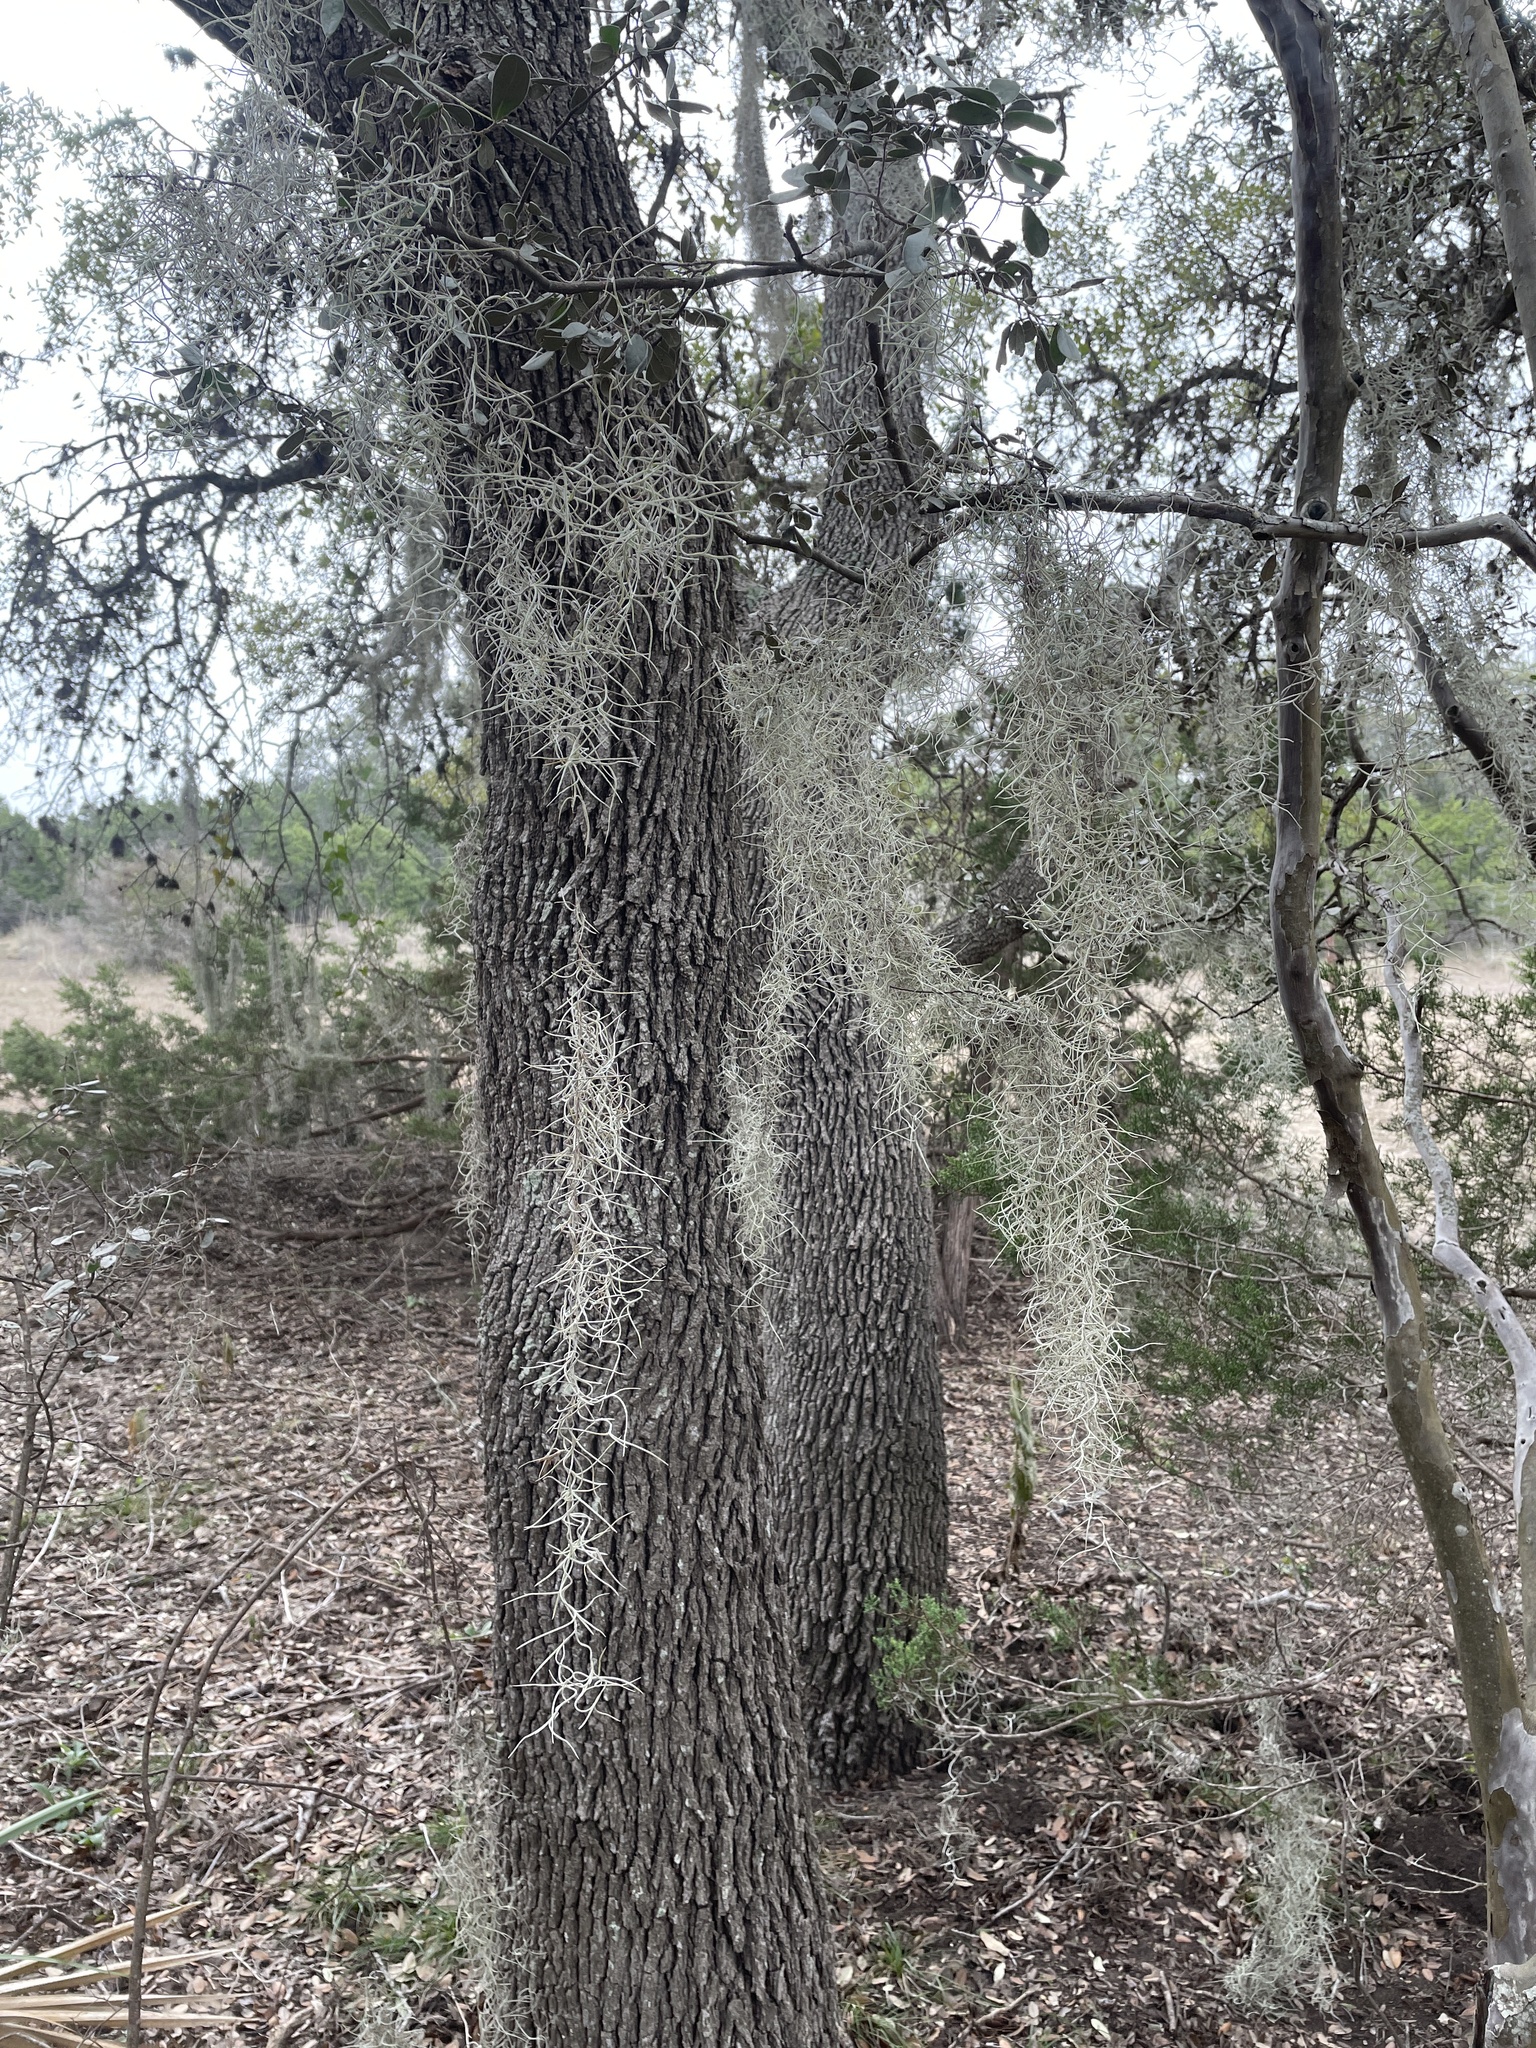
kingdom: Plantae
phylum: Tracheophyta
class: Liliopsida
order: Poales
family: Bromeliaceae
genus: Tillandsia
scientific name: Tillandsia usneoides
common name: Spanish moss
